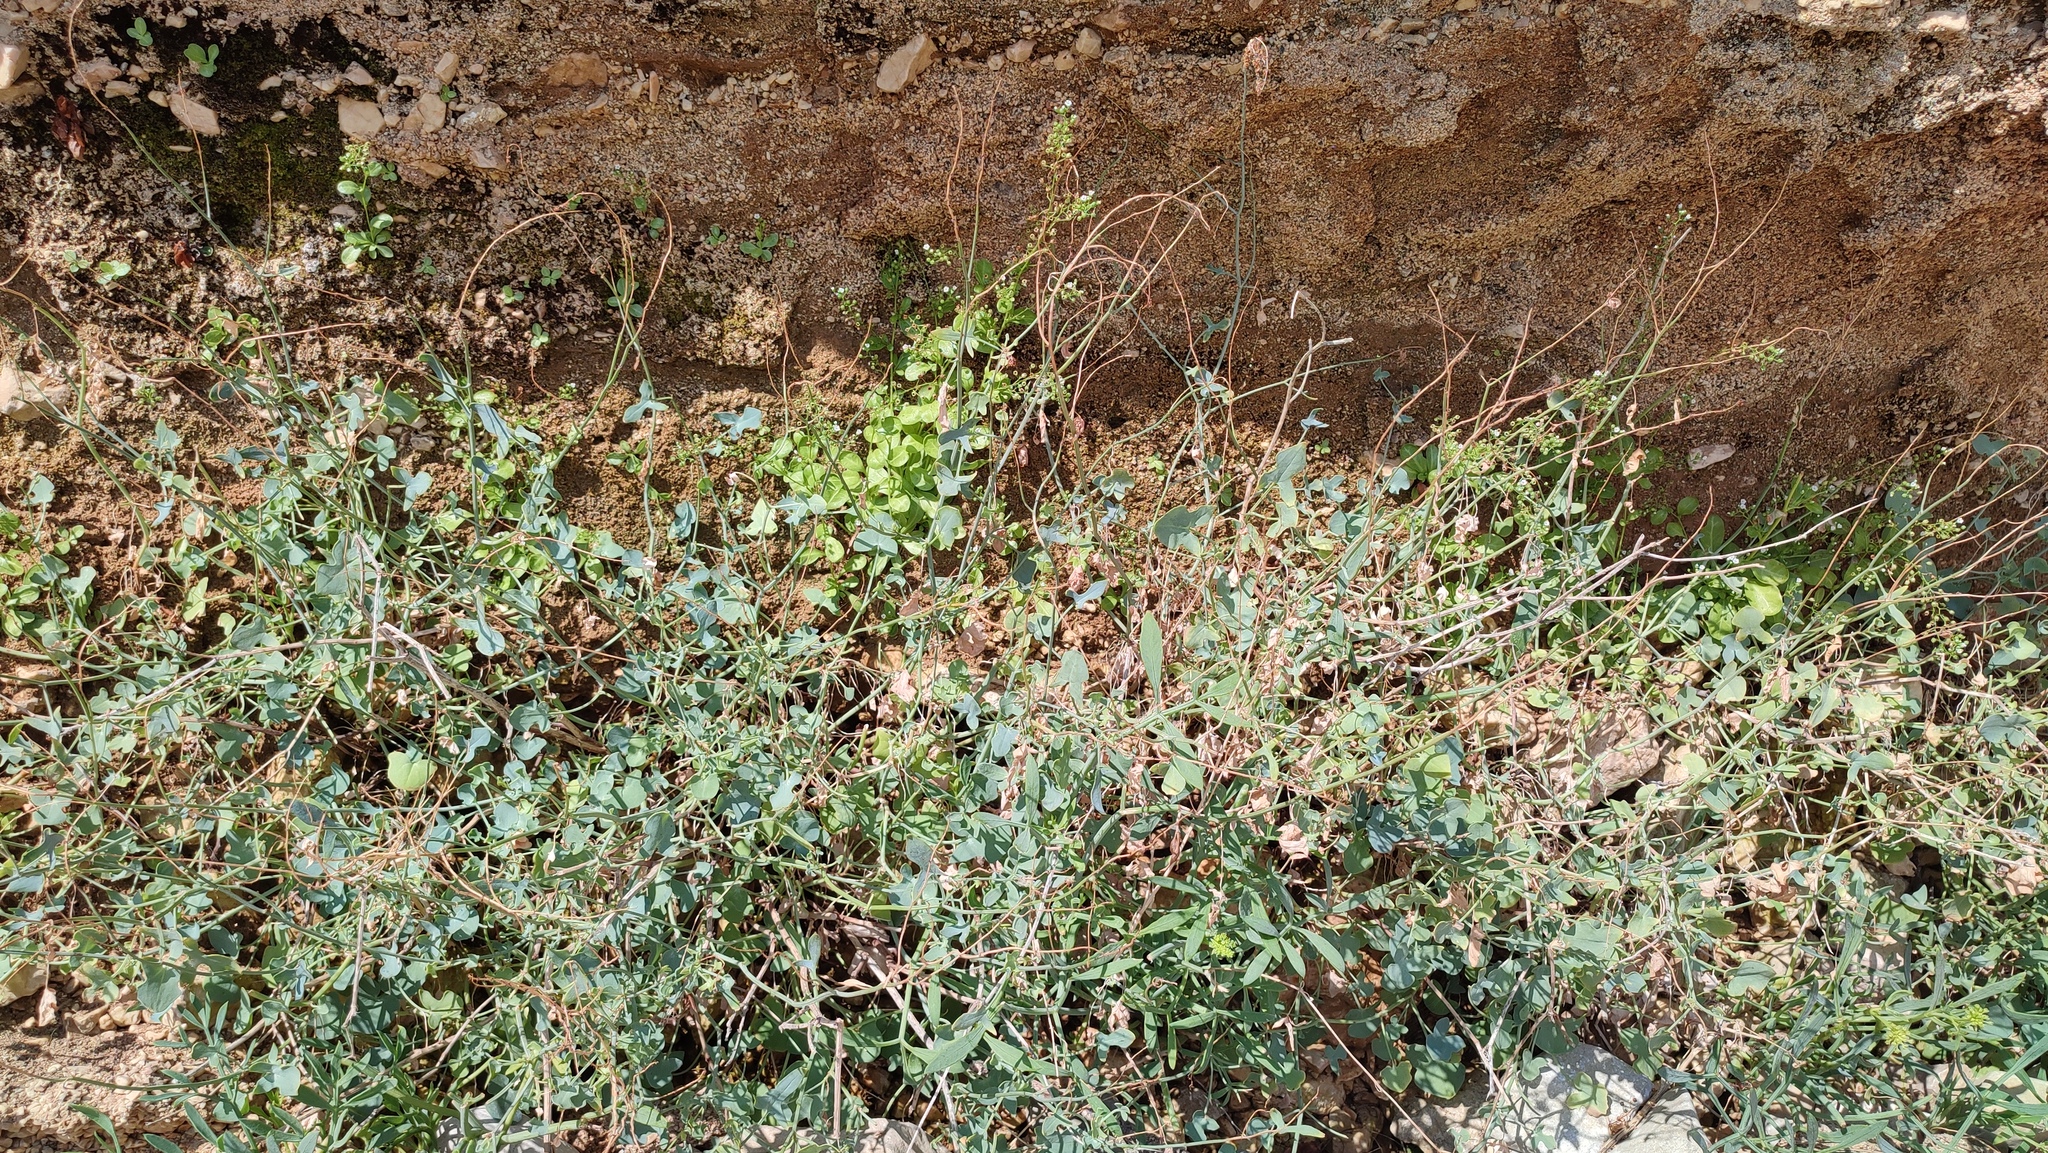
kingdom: Plantae
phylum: Tracheophyta
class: Magnoliopsida
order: Caryophyllales
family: Polygonaceae
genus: Rumex
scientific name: Rumex scutatus
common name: French sorrel
